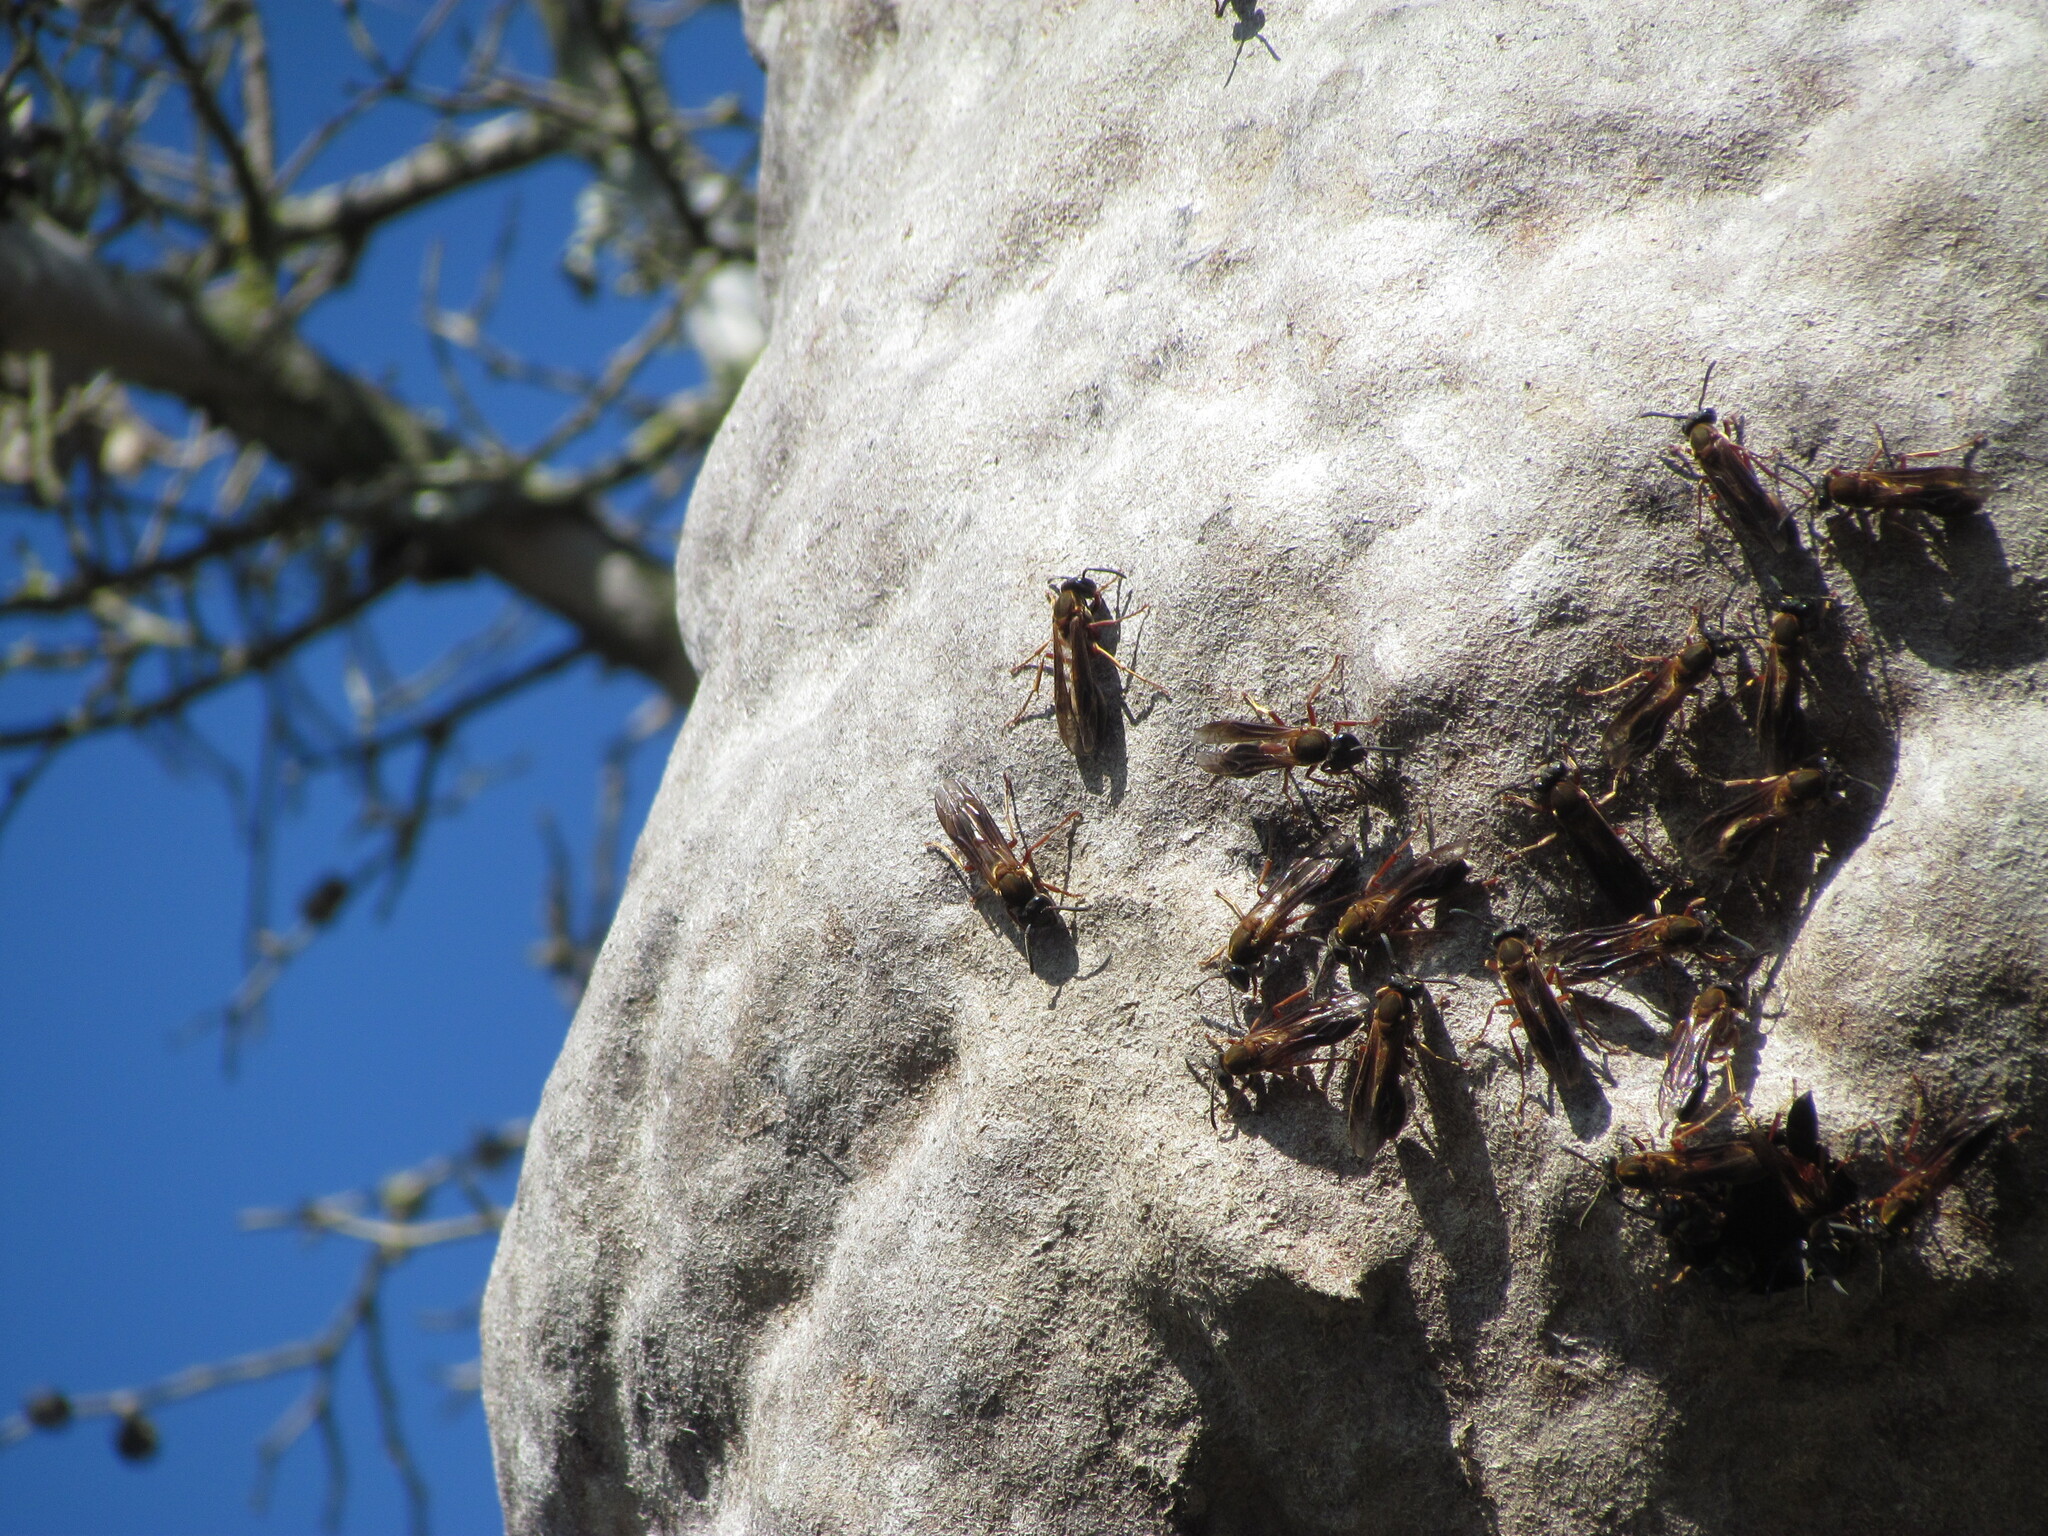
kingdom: Animalia
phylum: Arthropoda
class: Insecta
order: Hymenoptera
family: Eumenidae
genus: Polybia
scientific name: Polybia sericea
